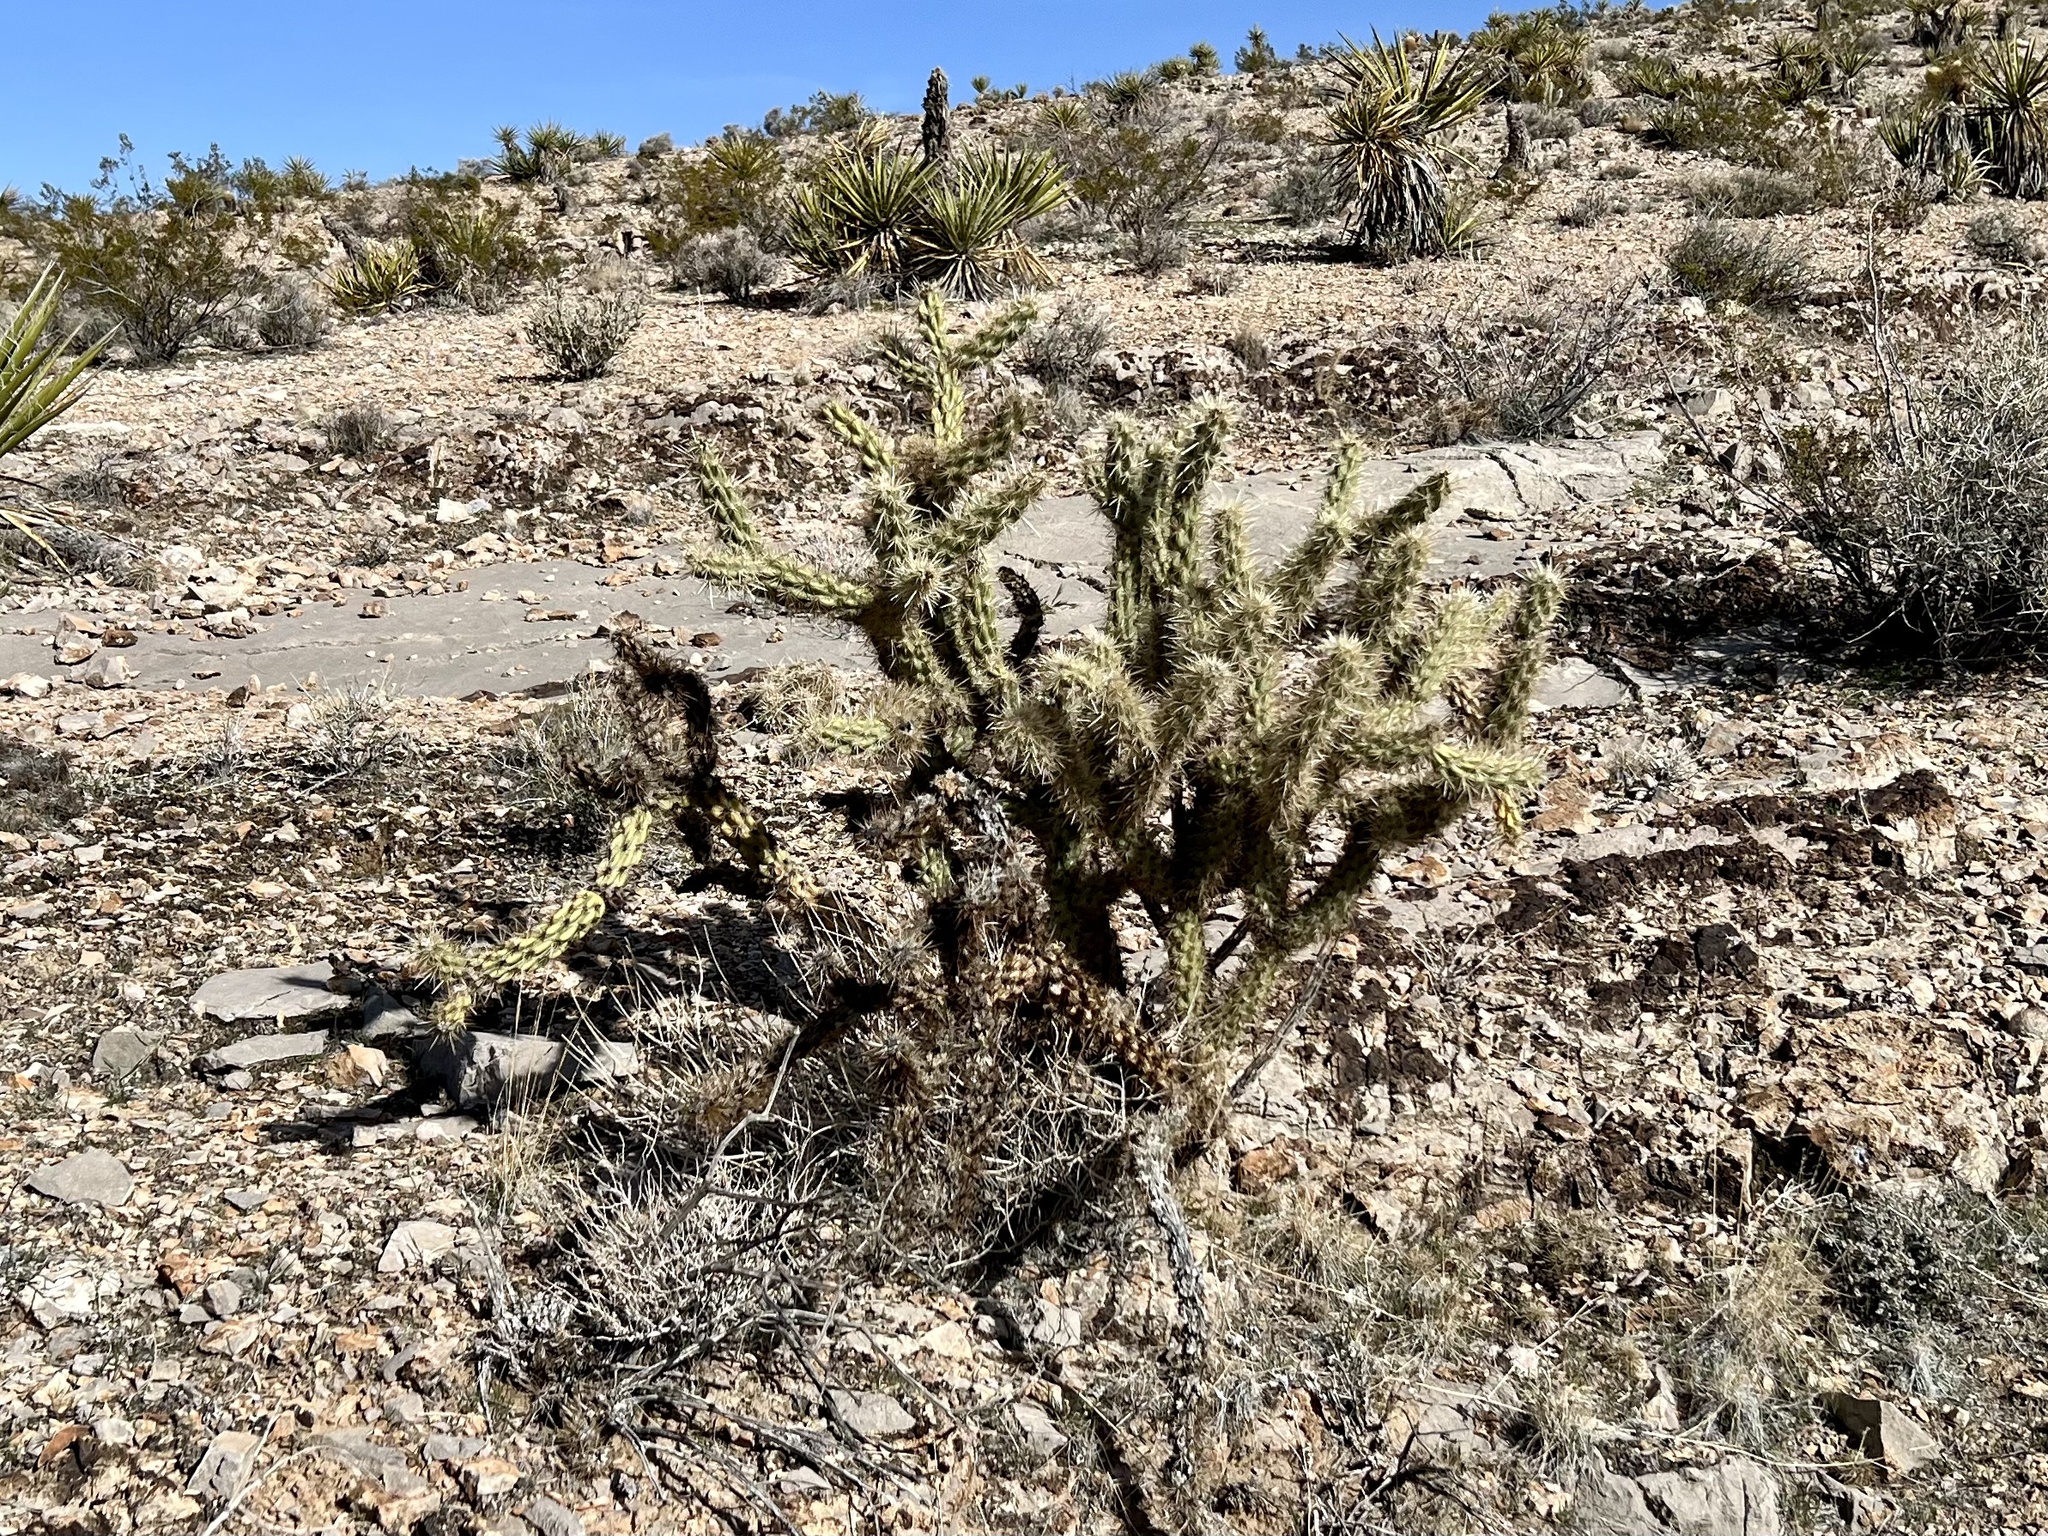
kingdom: Plantae
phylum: Tracheophyta
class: Magnoliopsida
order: Caryophyllales
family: Cactaceae
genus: Cylindropuntia
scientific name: Cylindropuntia acanthocarpa
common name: Buckhorn cholla
